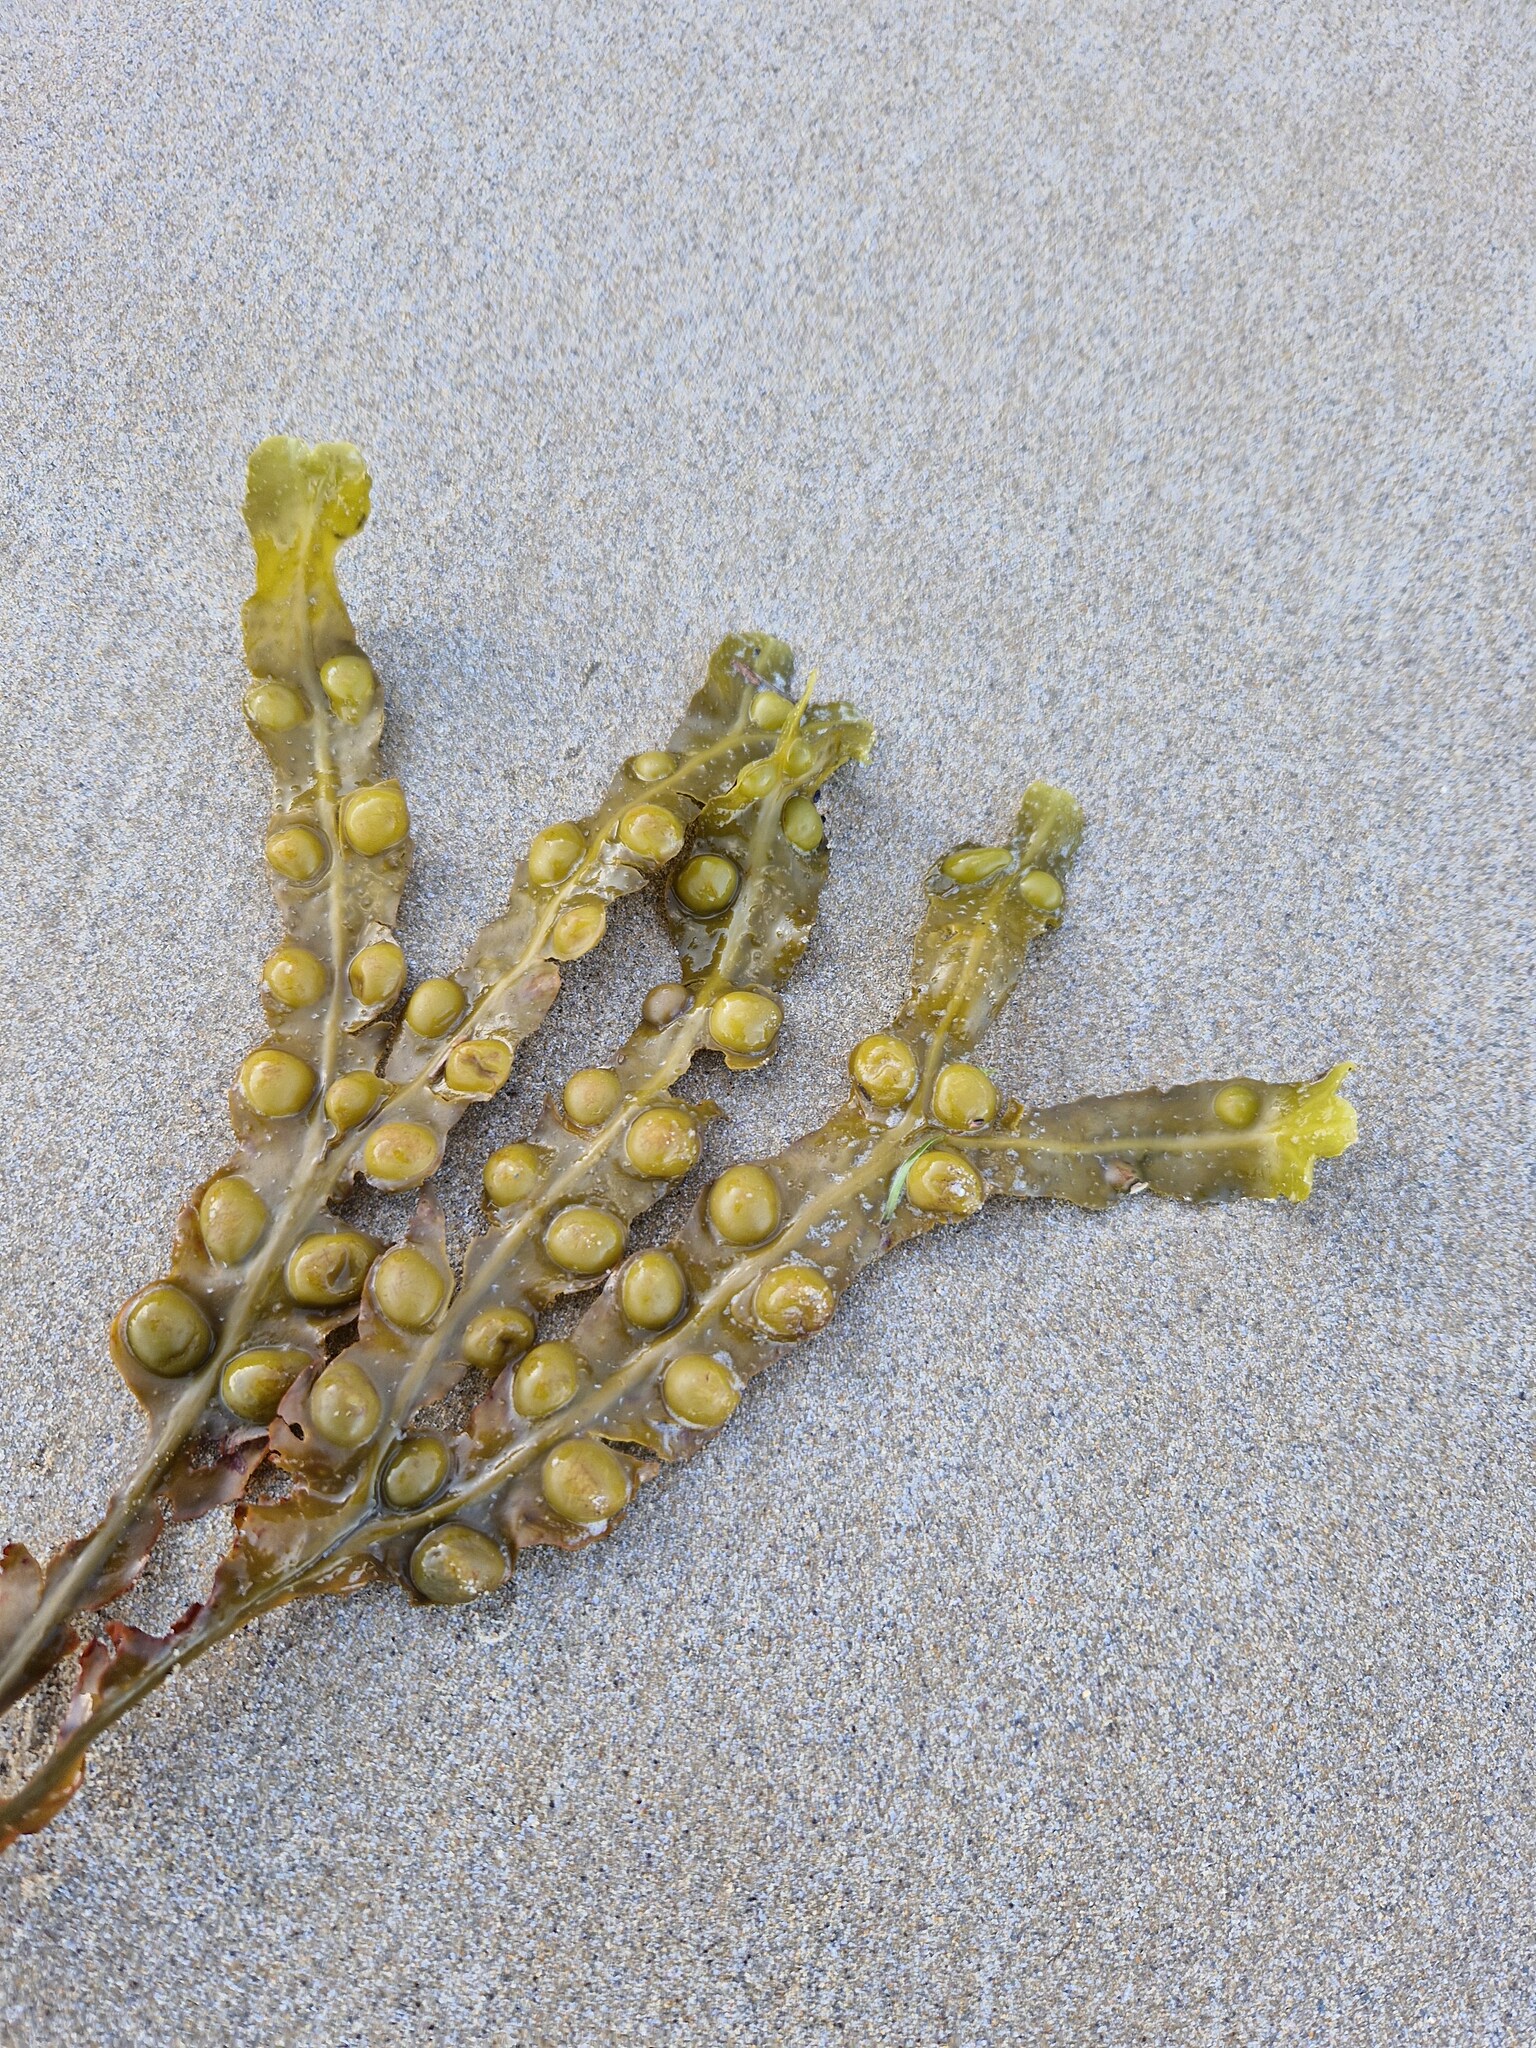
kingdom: Chromista
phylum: Ochrophyta
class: Phaeophyceae
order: Fucales
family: Fucaceae
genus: Fucus
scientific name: Fucus vesiculosus
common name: Bladder wrack
